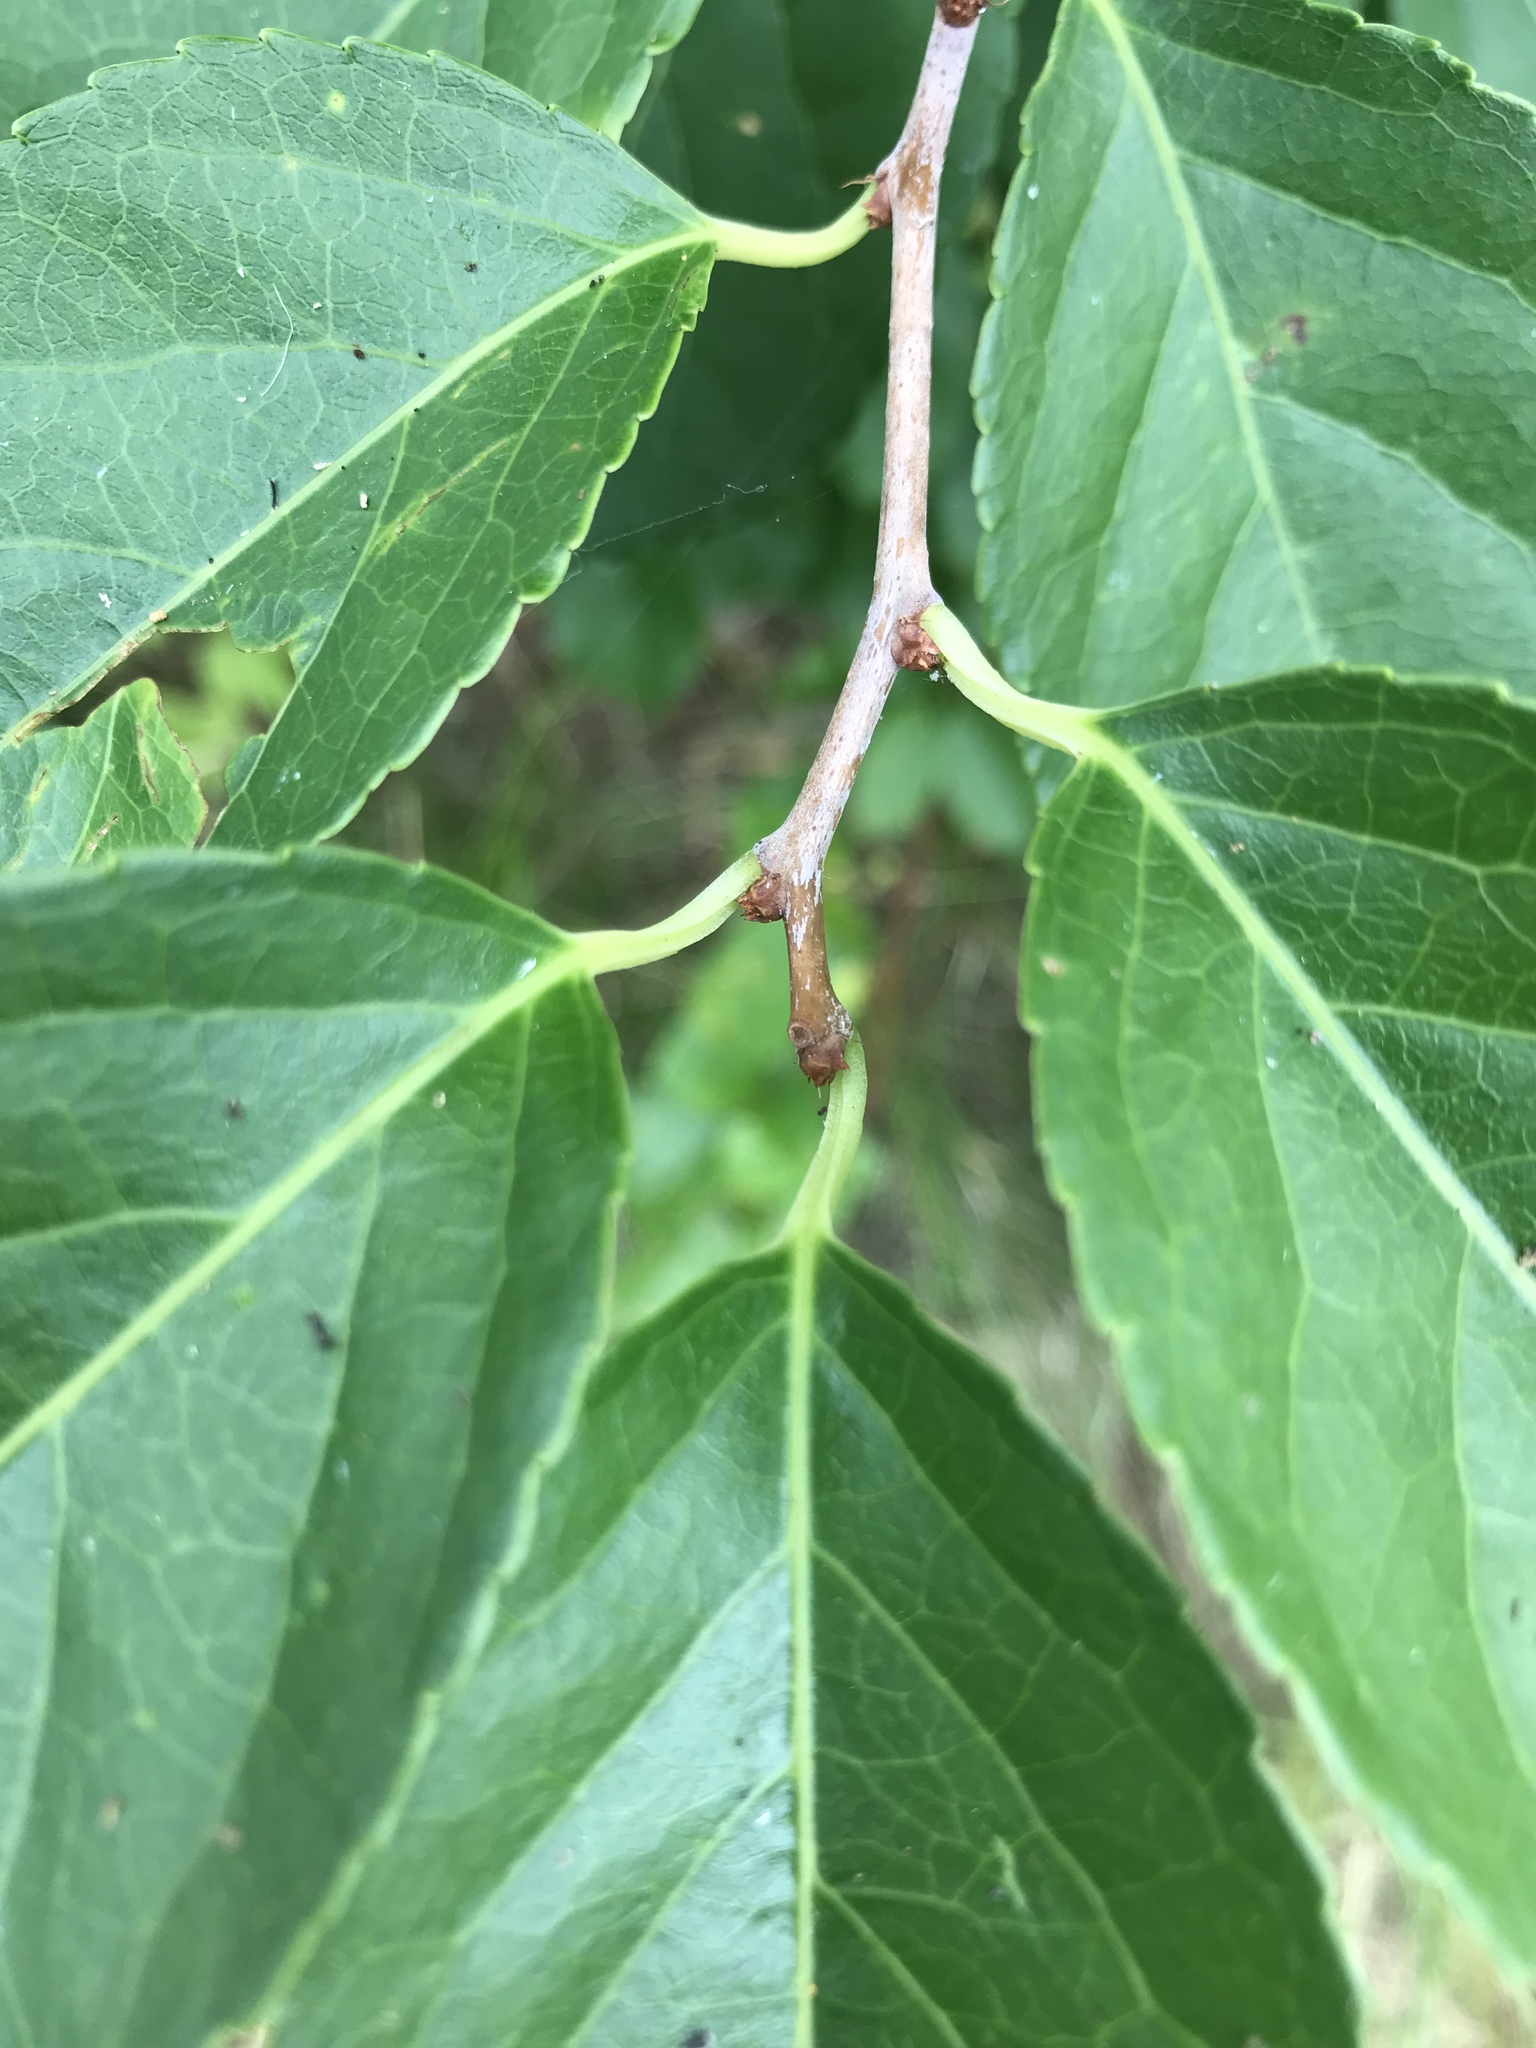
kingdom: Plantae
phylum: Tracheophyta
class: Magnoliopsida
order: Celastrales
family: Celastraceae
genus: Celastrus
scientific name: Celastrus orbiculatus
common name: Oriental bittersweet
